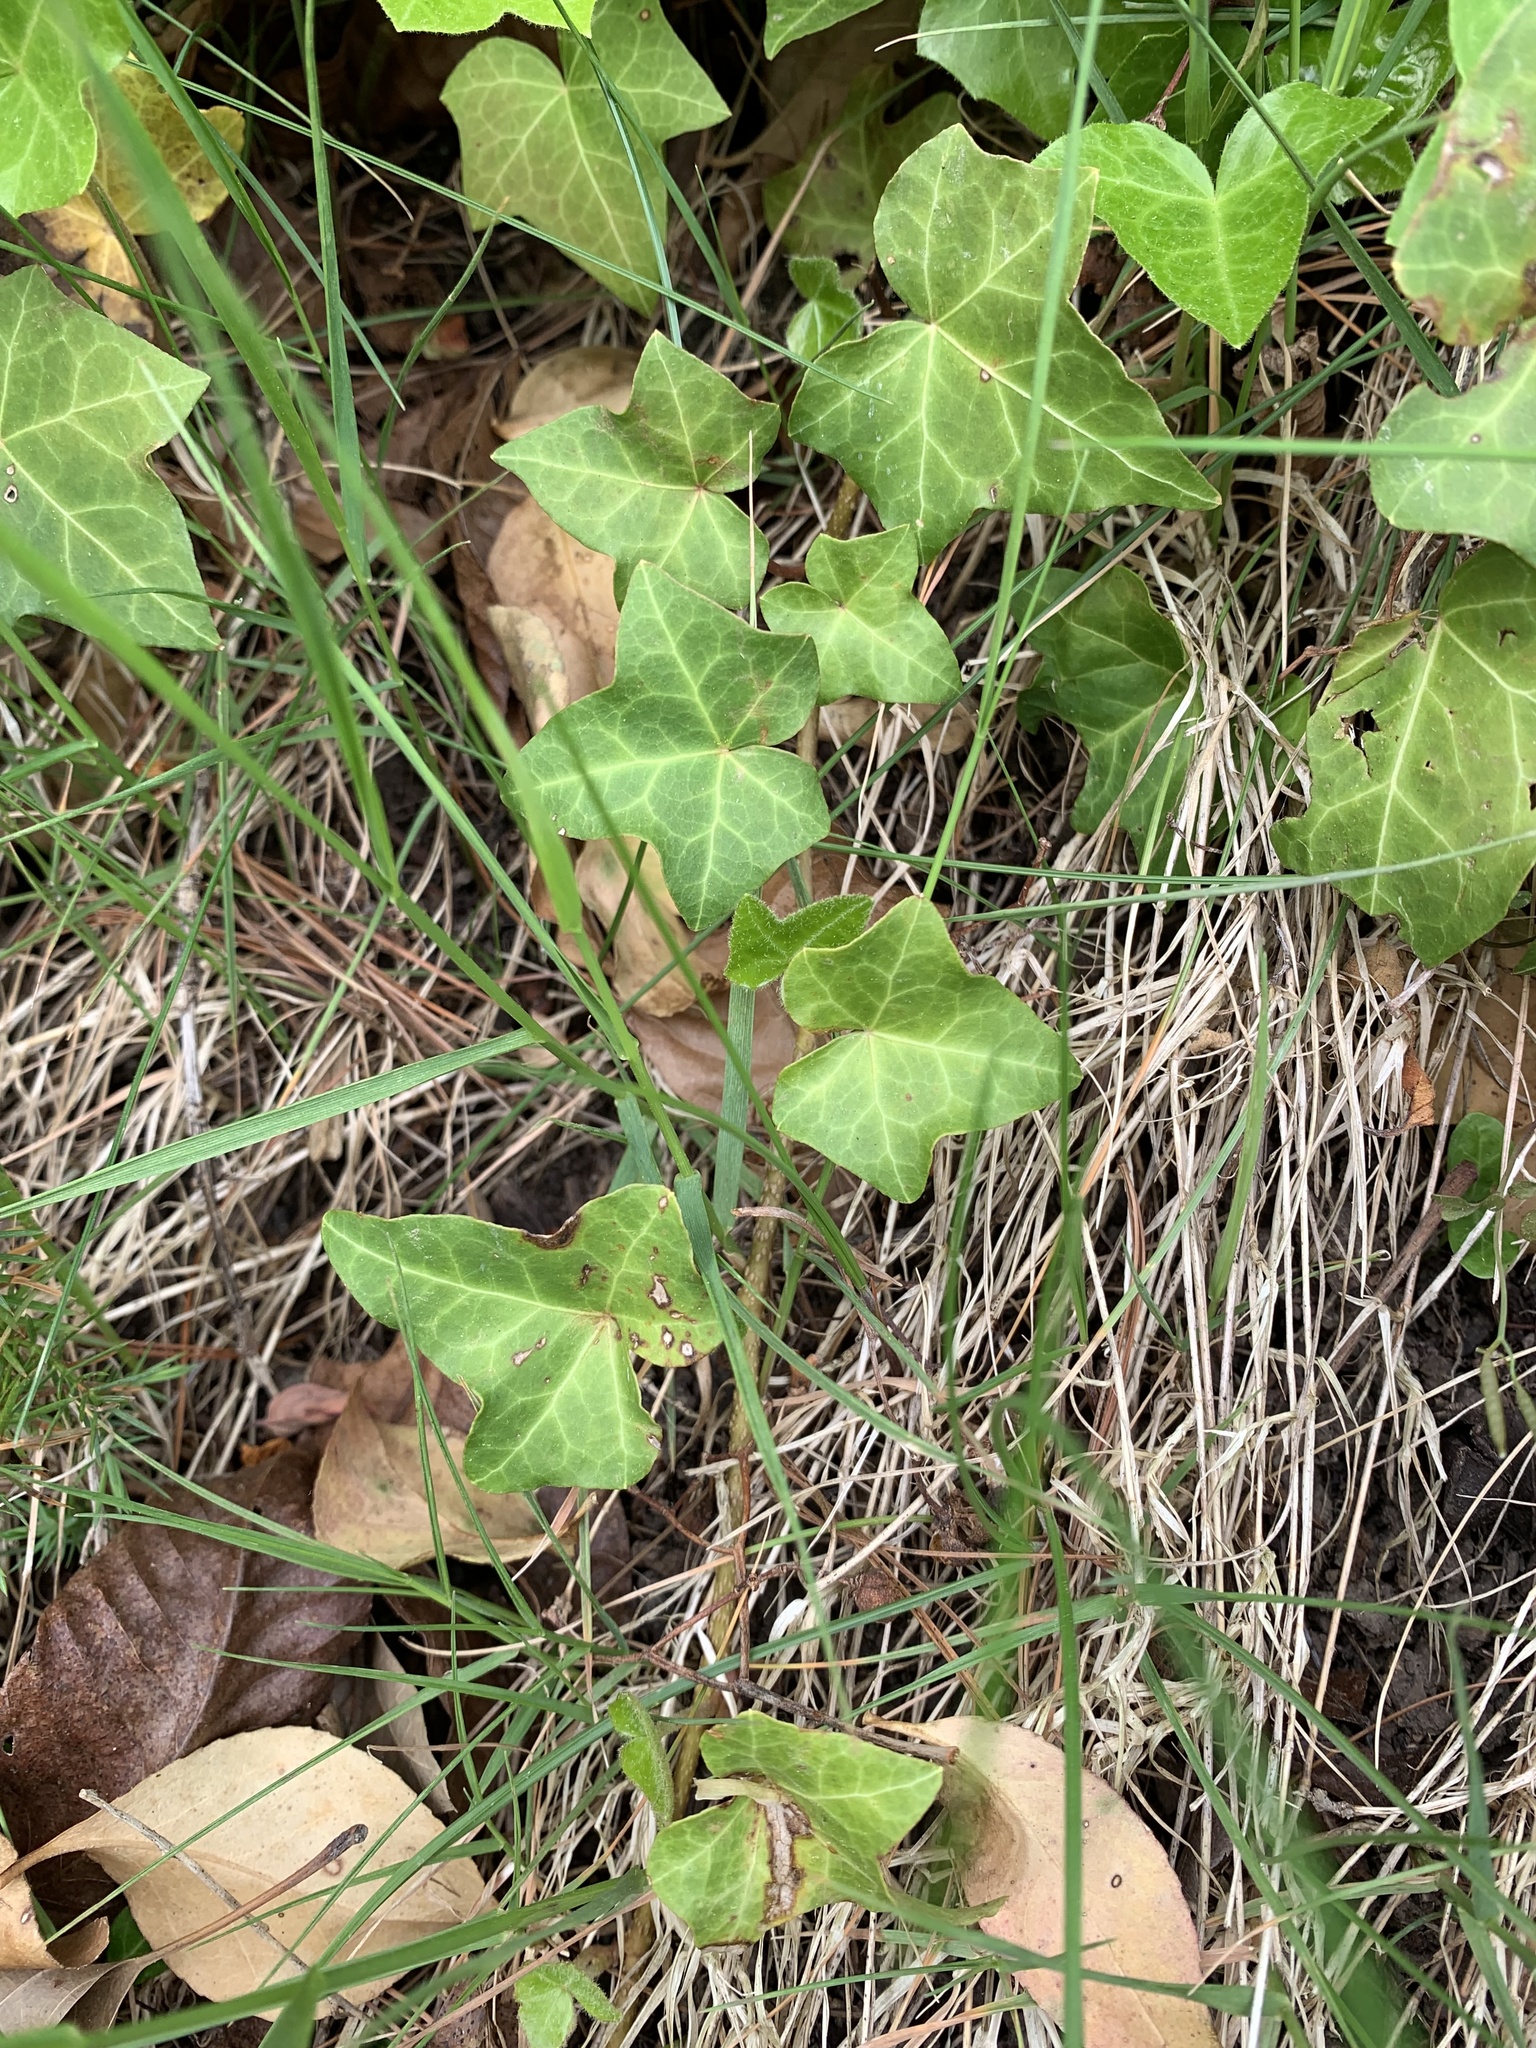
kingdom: Plantae
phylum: Tracheophyta
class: Magnoliopsida
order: Apiales
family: Araliaceae
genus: Hedera
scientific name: Hedera helix
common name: Ivy
